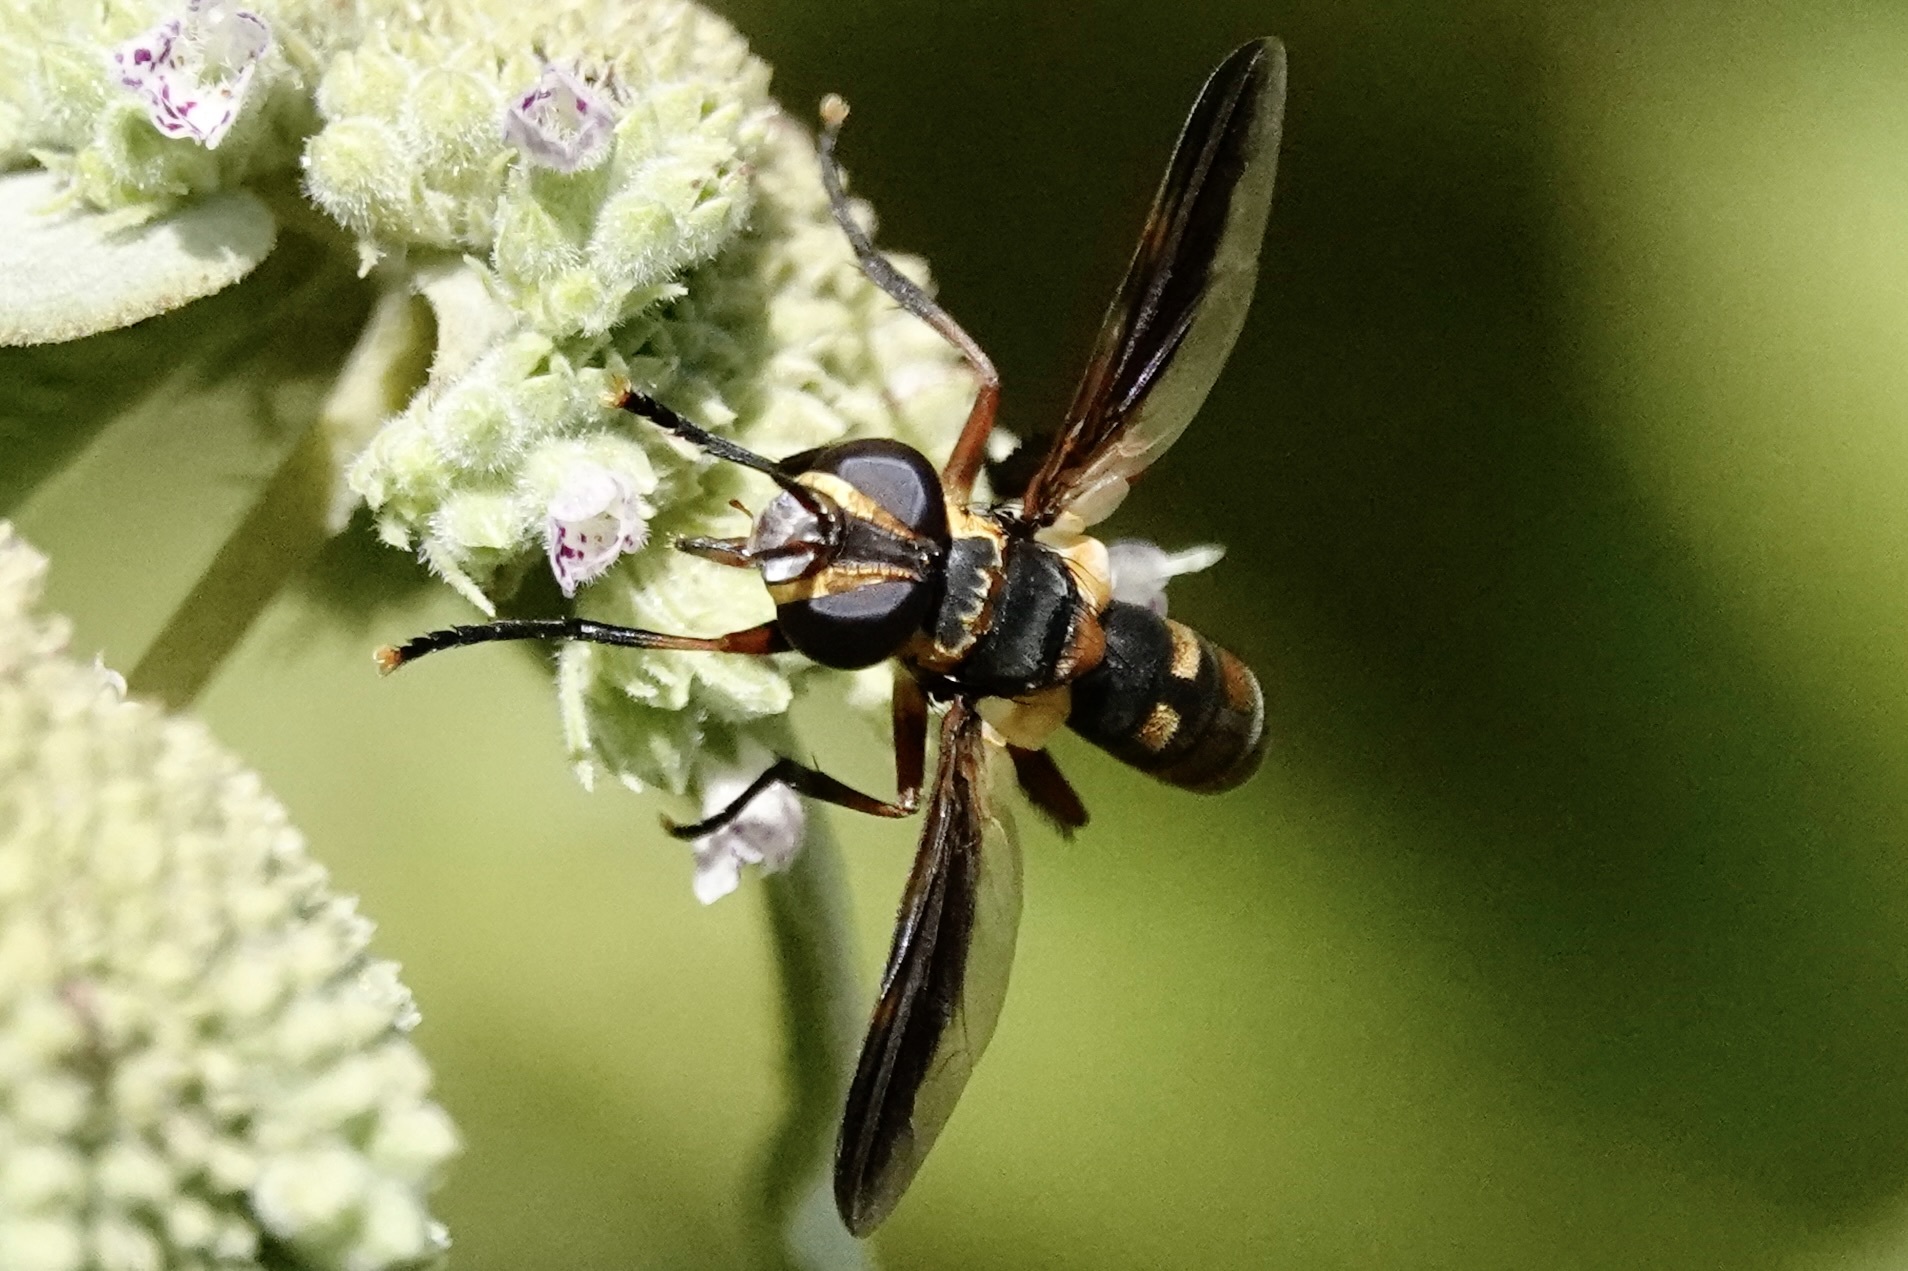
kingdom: Animalia
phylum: Arthropoda
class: Insecta
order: Diptera
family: Tachinidae
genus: Trichopoda
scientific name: Trichopoda plumipes
